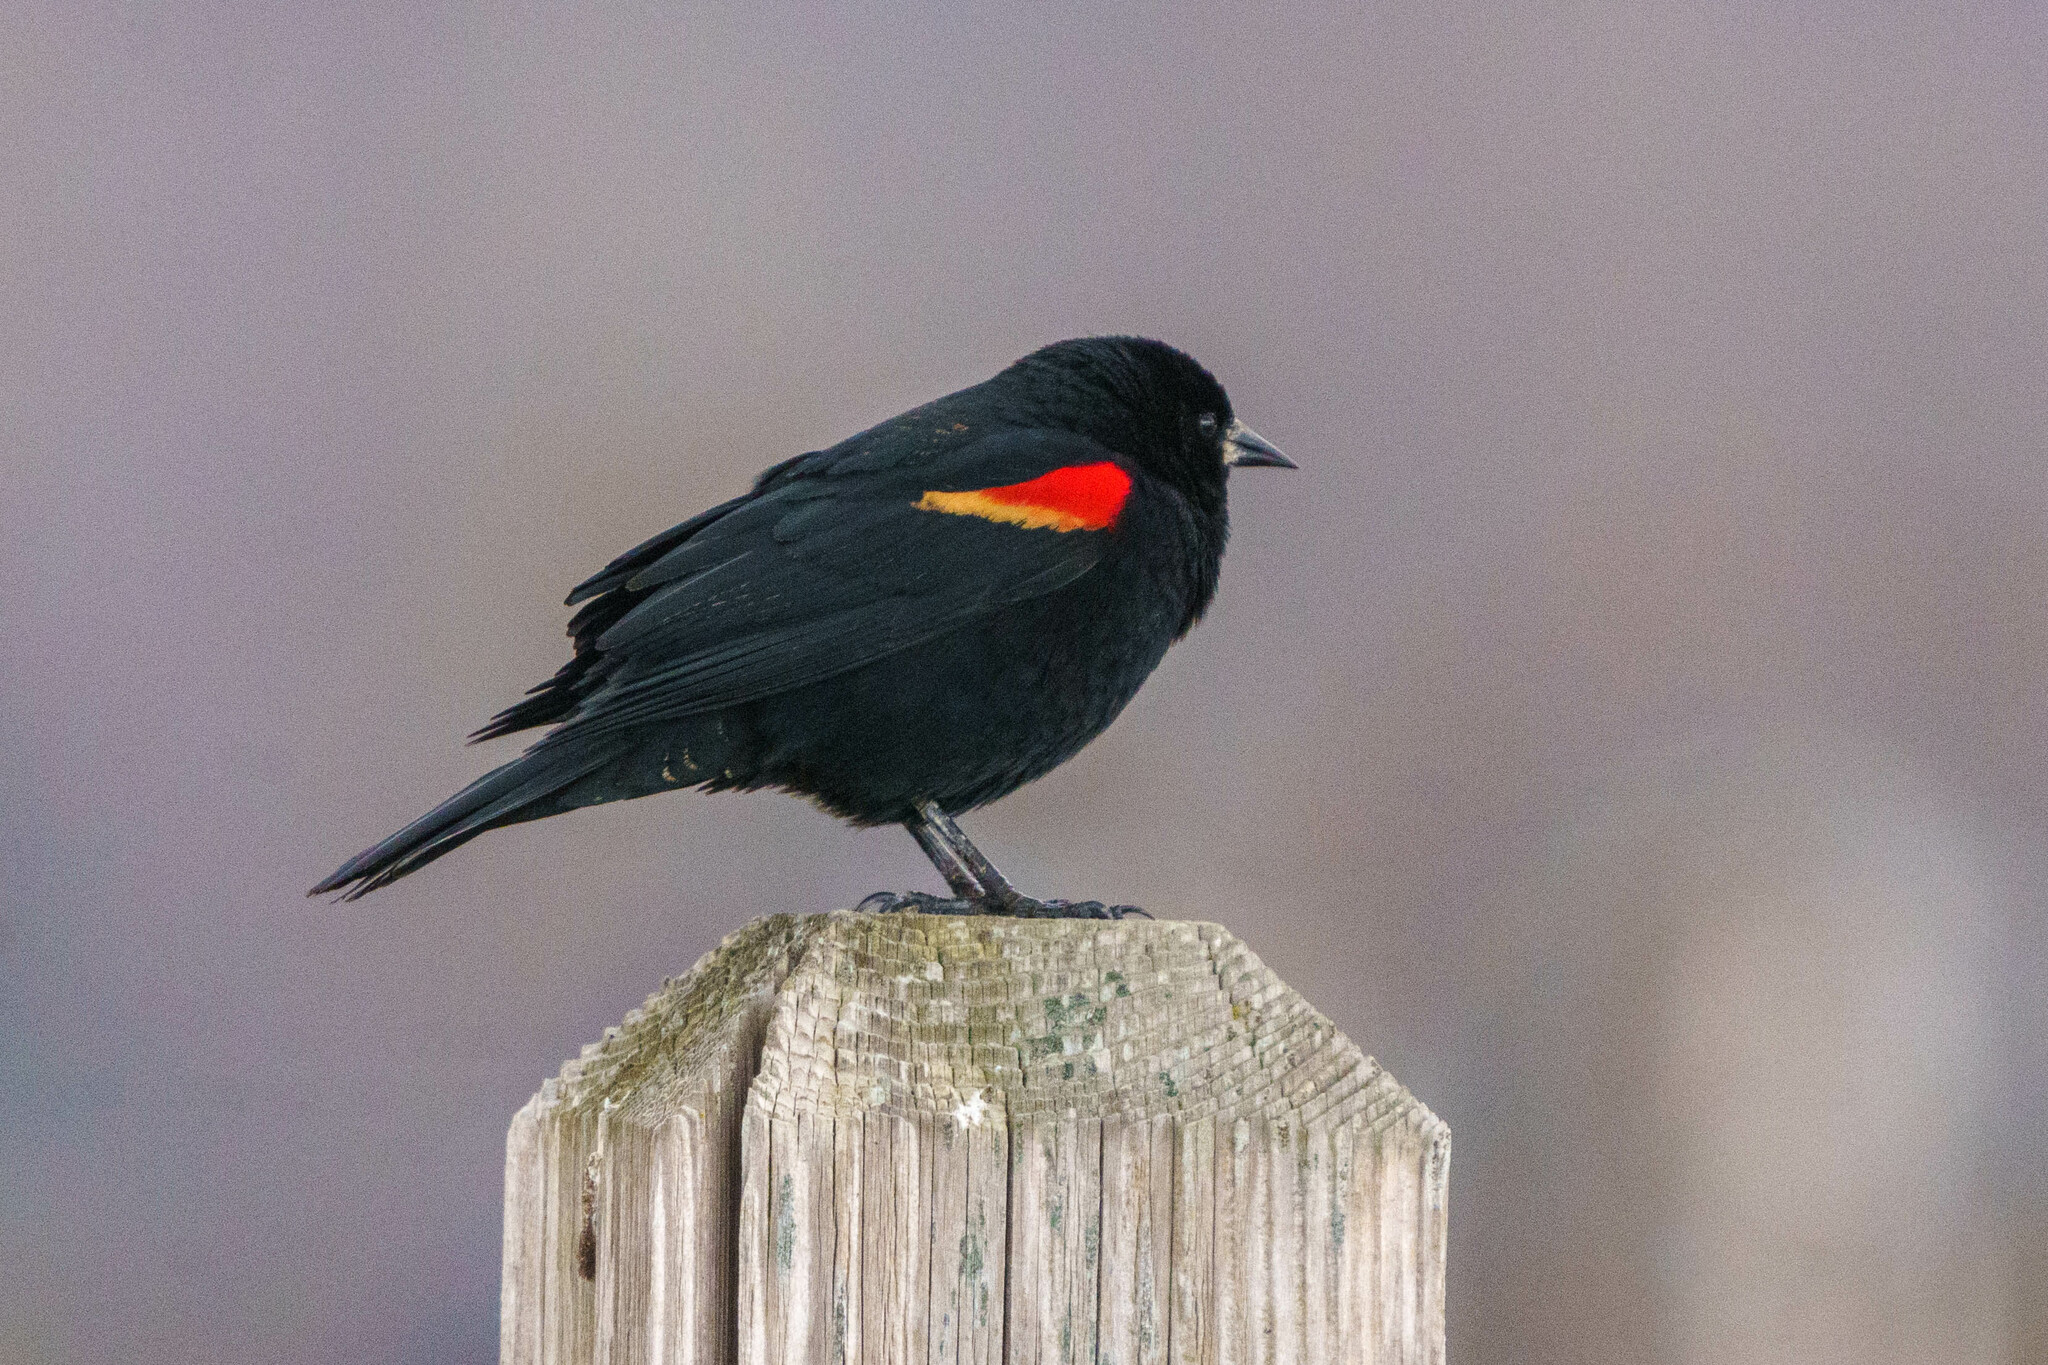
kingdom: Animalia
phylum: Chordata
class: Aves
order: Passeriformes
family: Icteridae
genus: Agelaius
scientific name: Agelaius phoeniceus
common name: Red-winged blackbird
